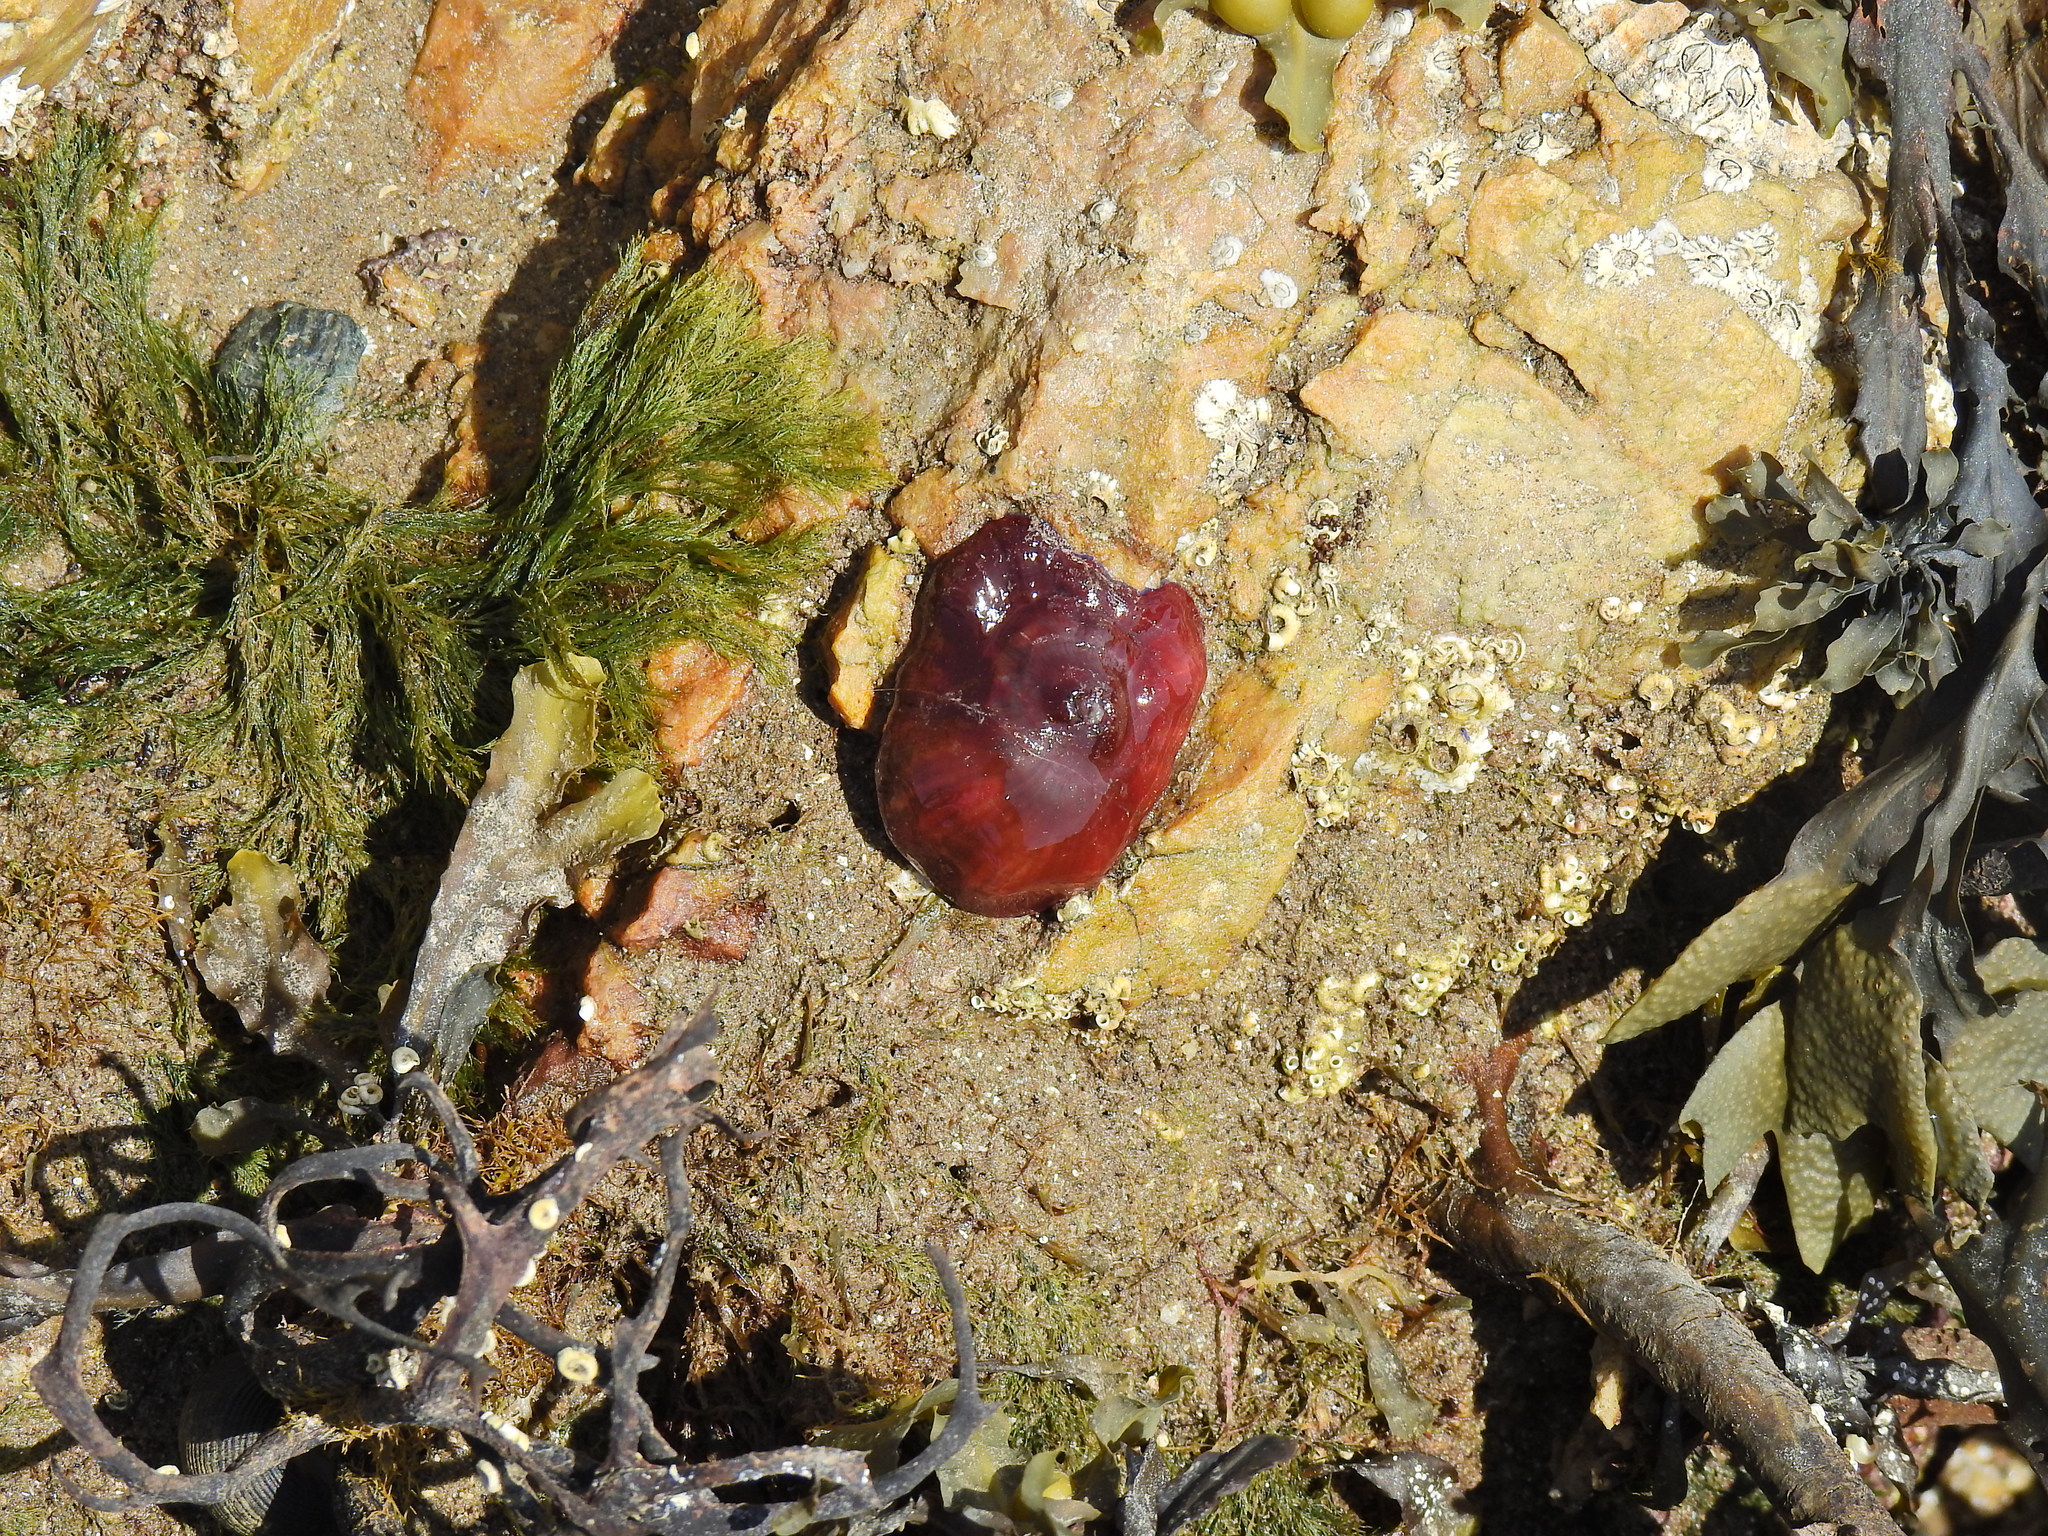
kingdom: Animalia
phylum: Cnidaria
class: Anthozoa
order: Actiniaria
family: Actiniidae
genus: Actinia
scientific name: Actinia equina
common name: Beadlet anemone
